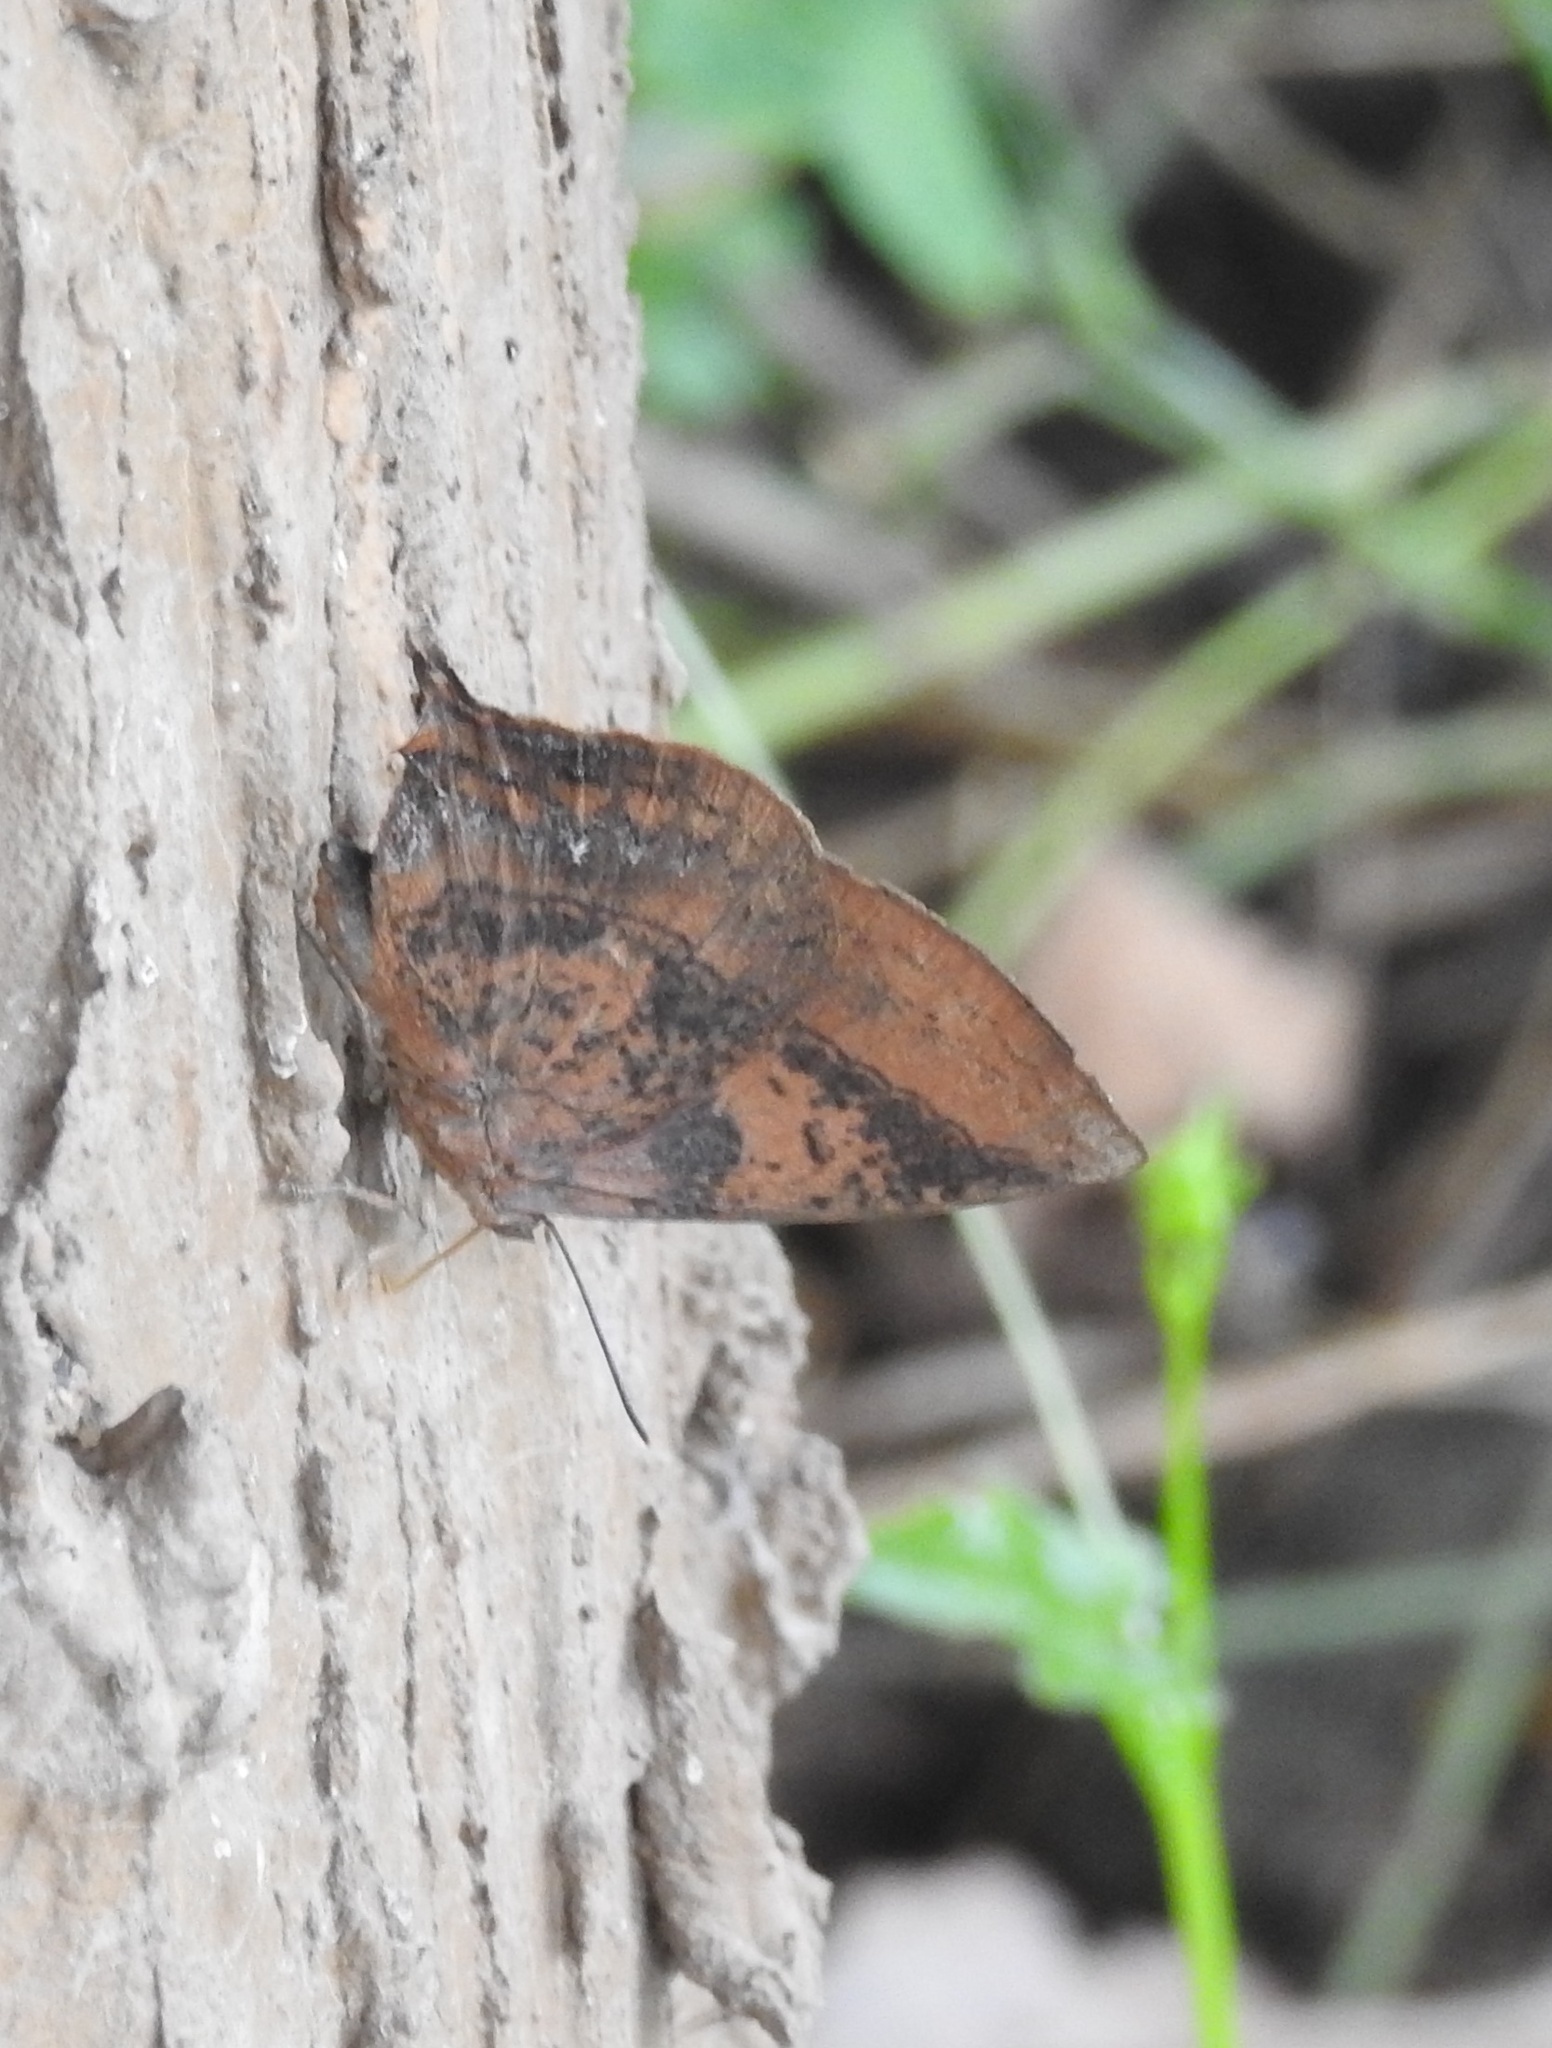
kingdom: Animalia
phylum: Arthropoda
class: Insecta
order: Lepidoptera
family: Lycaenidae
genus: Amblypodia
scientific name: Amblypodia anita
